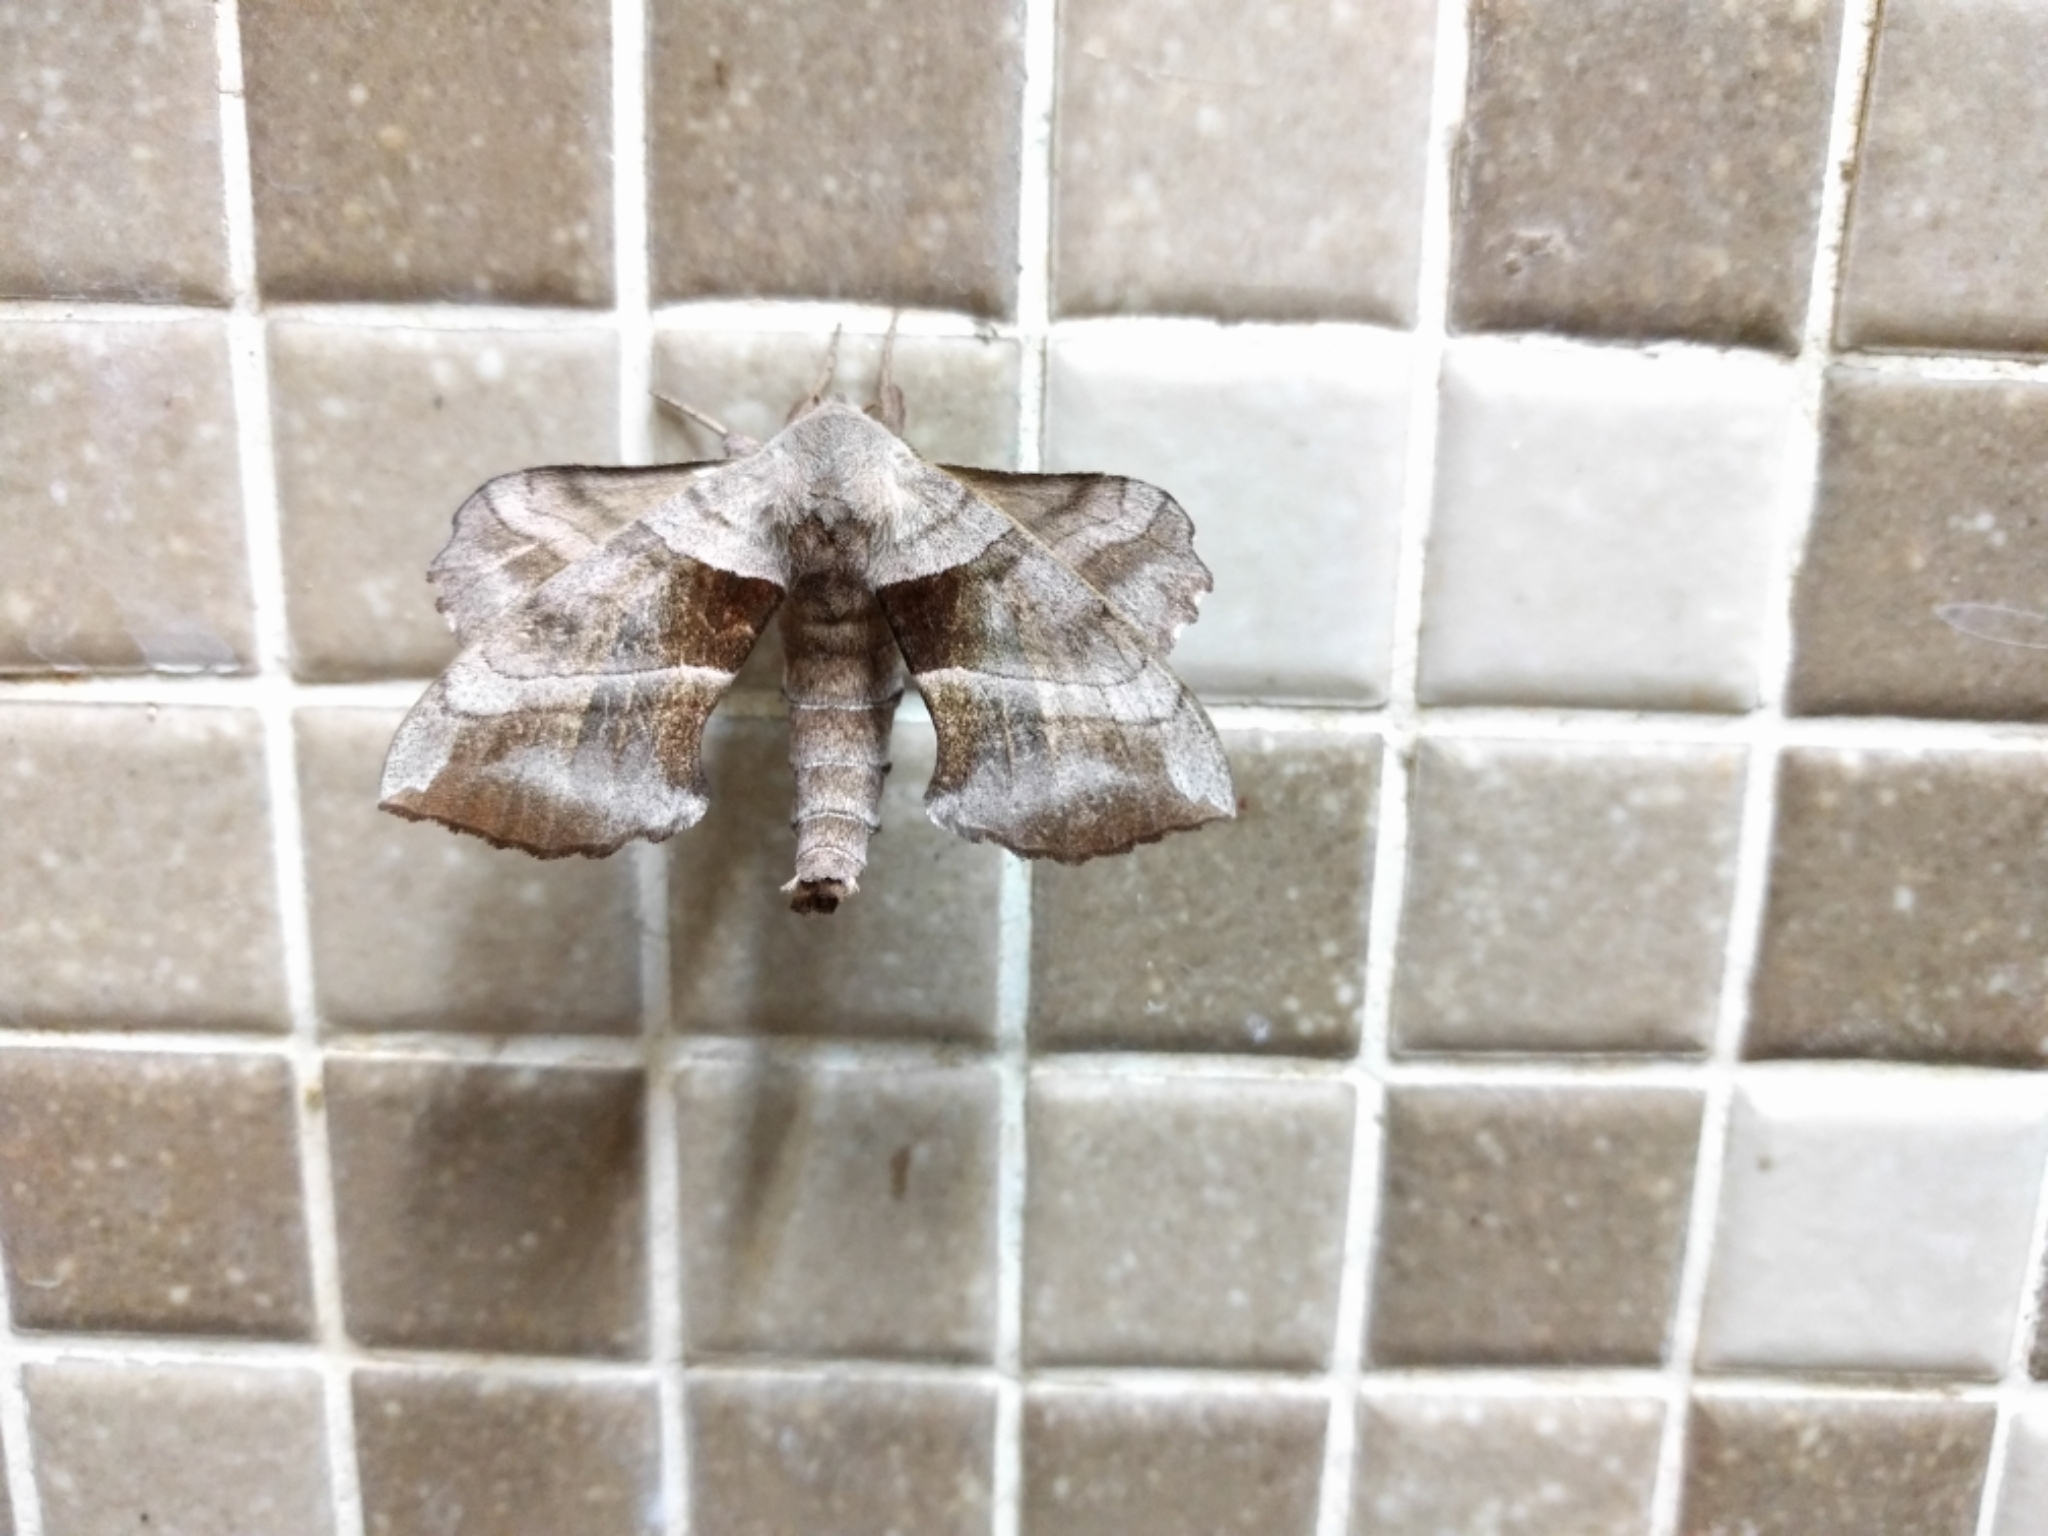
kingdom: Animalia
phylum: Arthropoda
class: Insecta
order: Lepidoptera
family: Sphingidae
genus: Amorpha
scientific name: Amorpha juglandis
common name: Walnut sphinx
